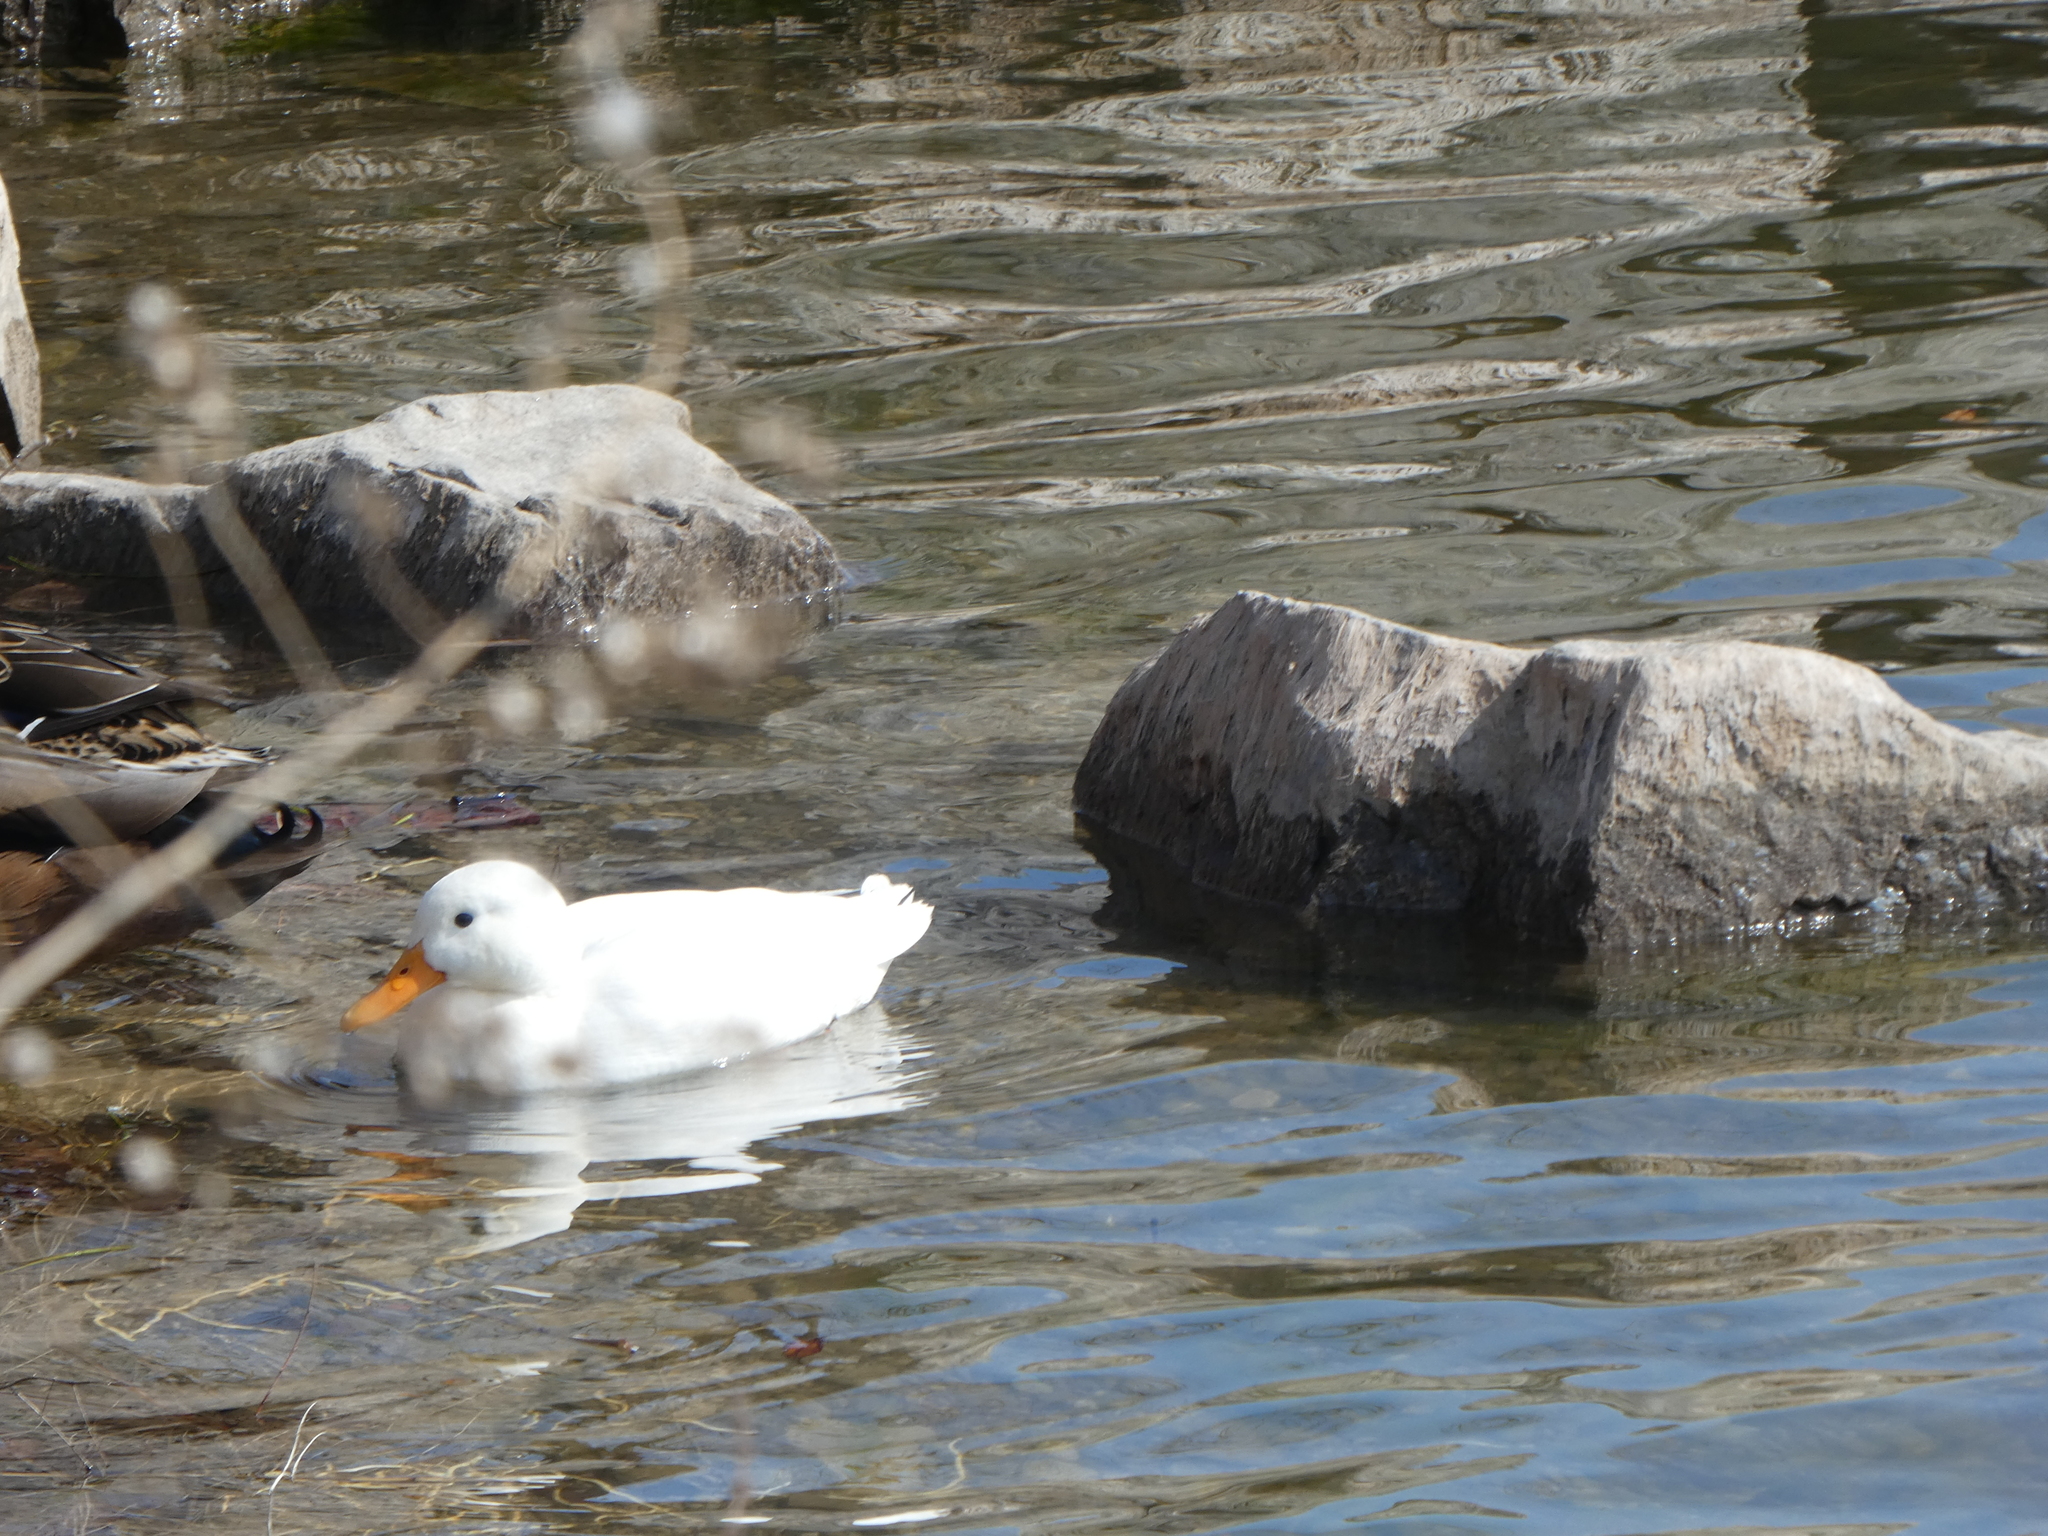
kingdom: Animalia
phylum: Chordata
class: Aves
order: Anseriformes
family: Anatidae
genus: Anas
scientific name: Anas platyrhynchos
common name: Mallard
